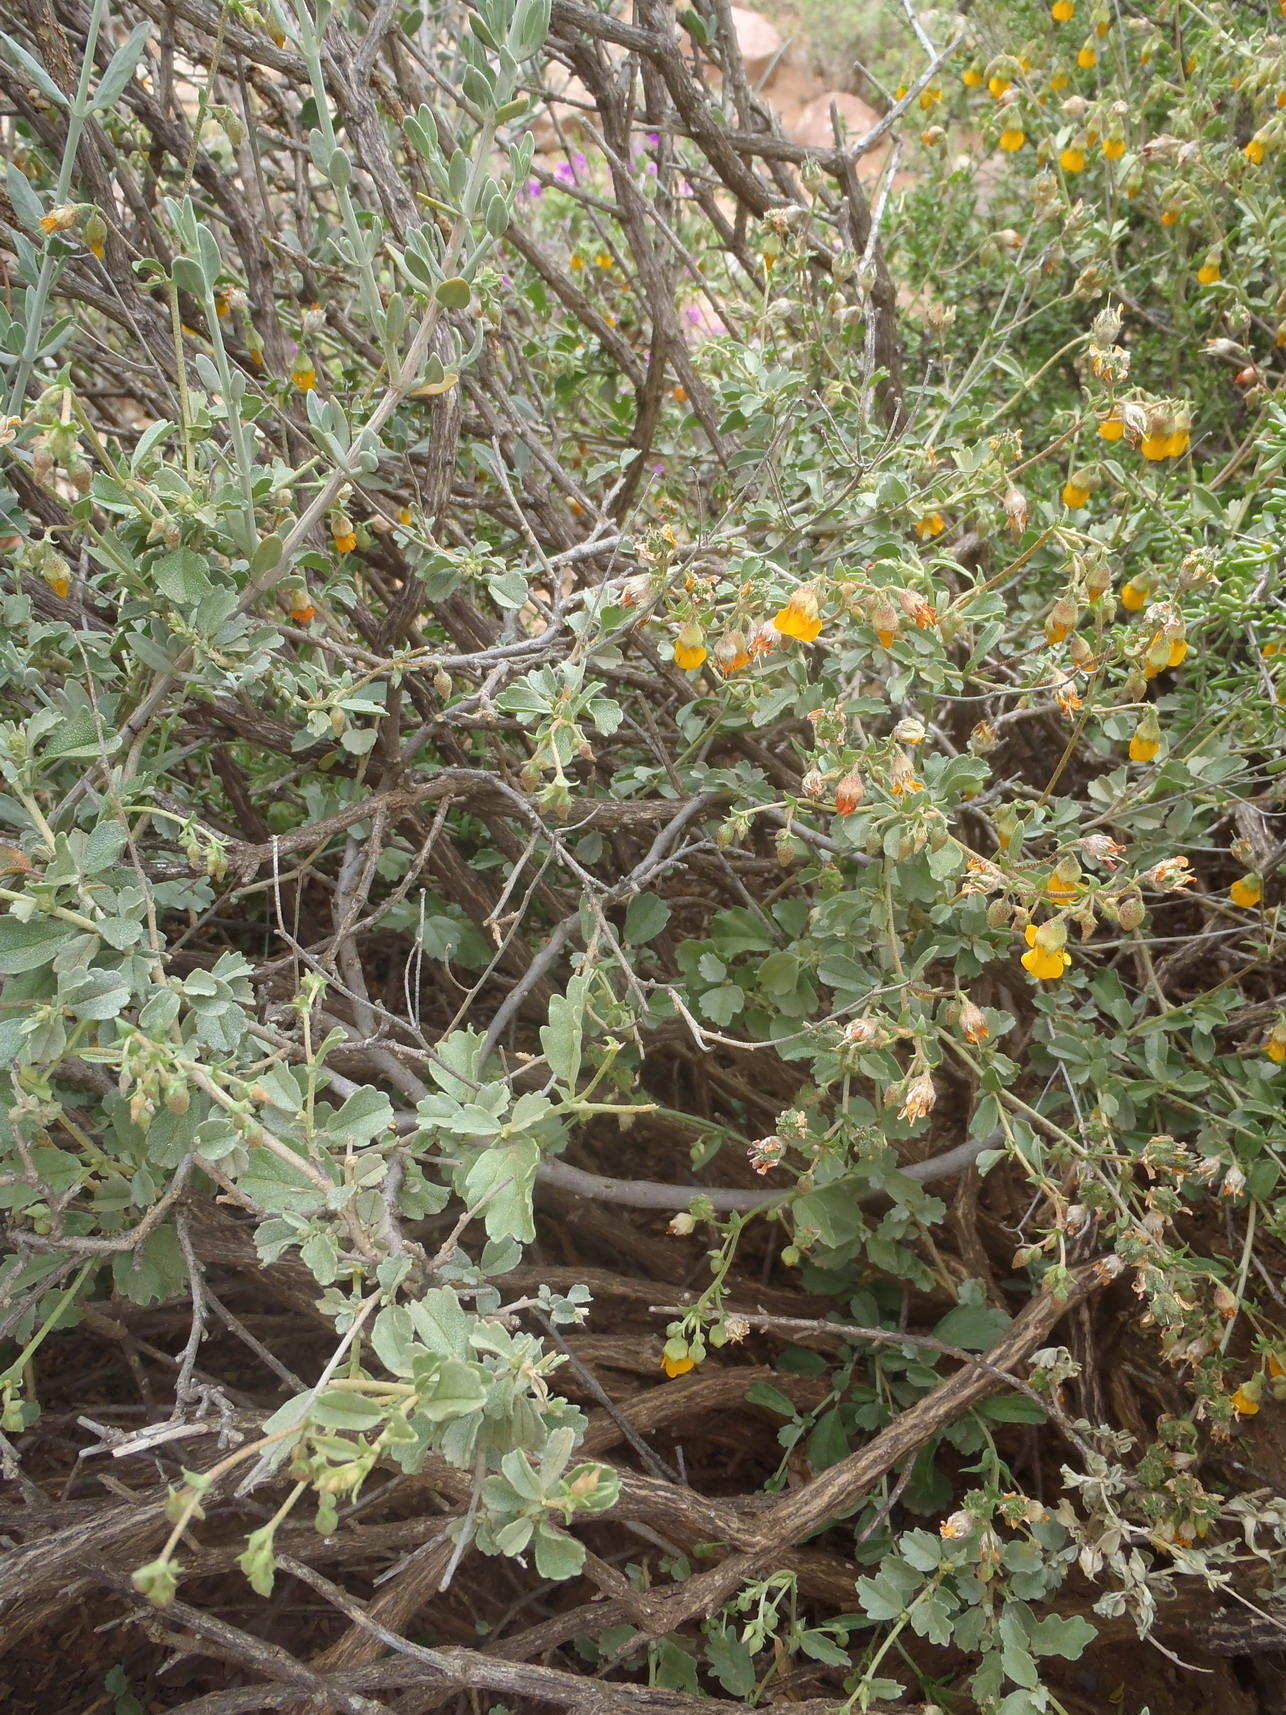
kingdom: Plantae
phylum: Tracheophyta
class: Magnoliopsida
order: Malvales
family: Malvaceae
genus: Hermannia
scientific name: Hermannia cuneifolia
